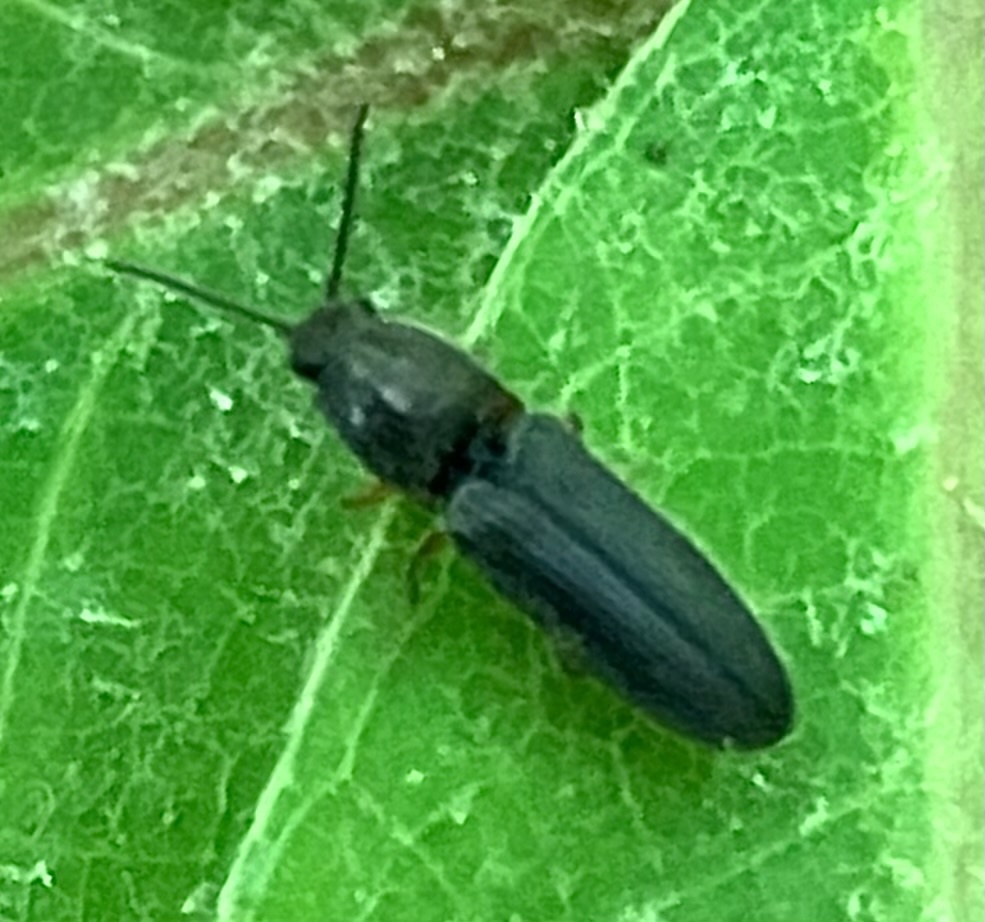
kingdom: Animalia
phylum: Arthropoda
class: Insecta
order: Coleoptera
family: Elateridae
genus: Limonius
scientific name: Limonius quercinus
